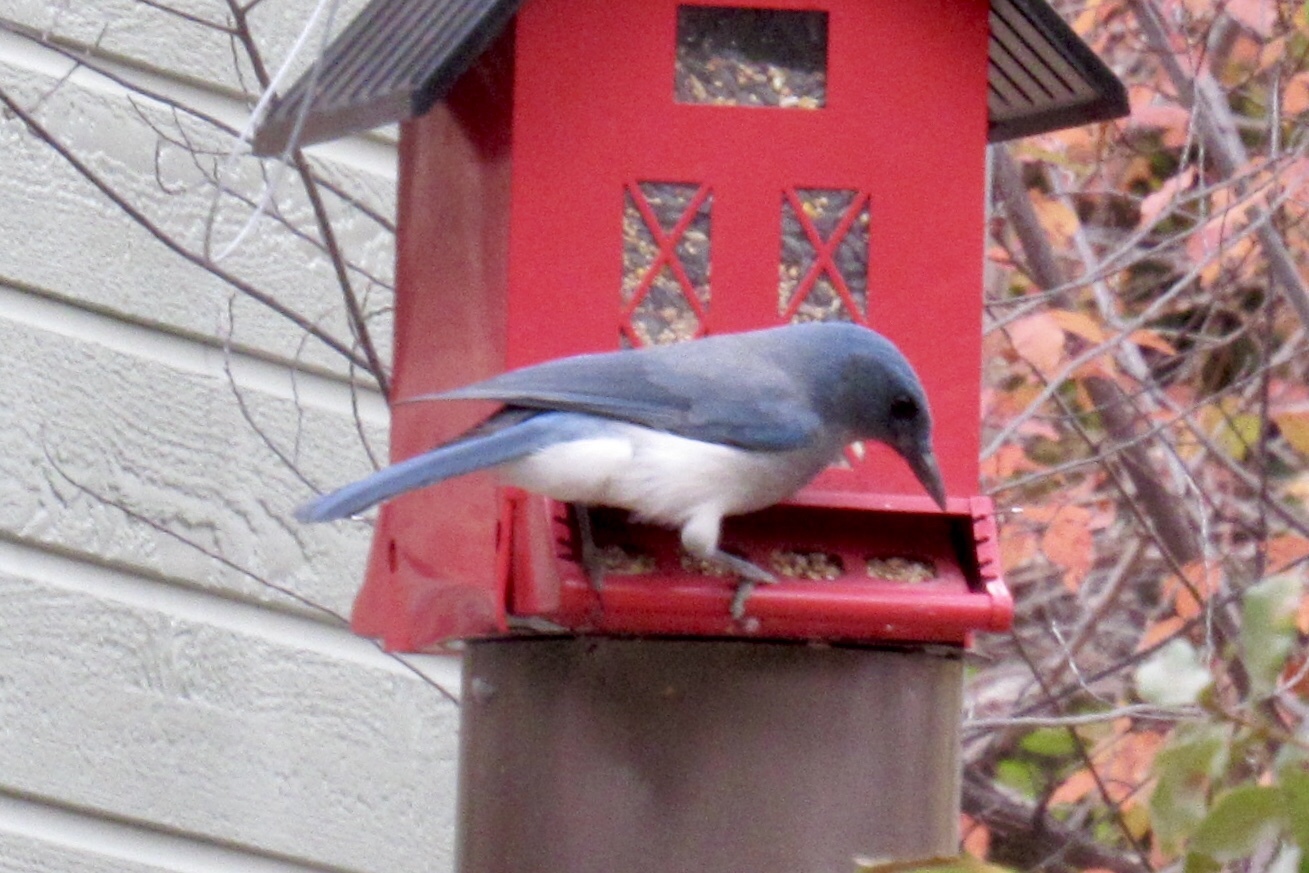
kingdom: Animalia
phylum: Chordata
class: Aves
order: Passeriformes
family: Corvidae
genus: Aphelocoma
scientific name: Aphelocoma wollweberi
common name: Mexican jay
